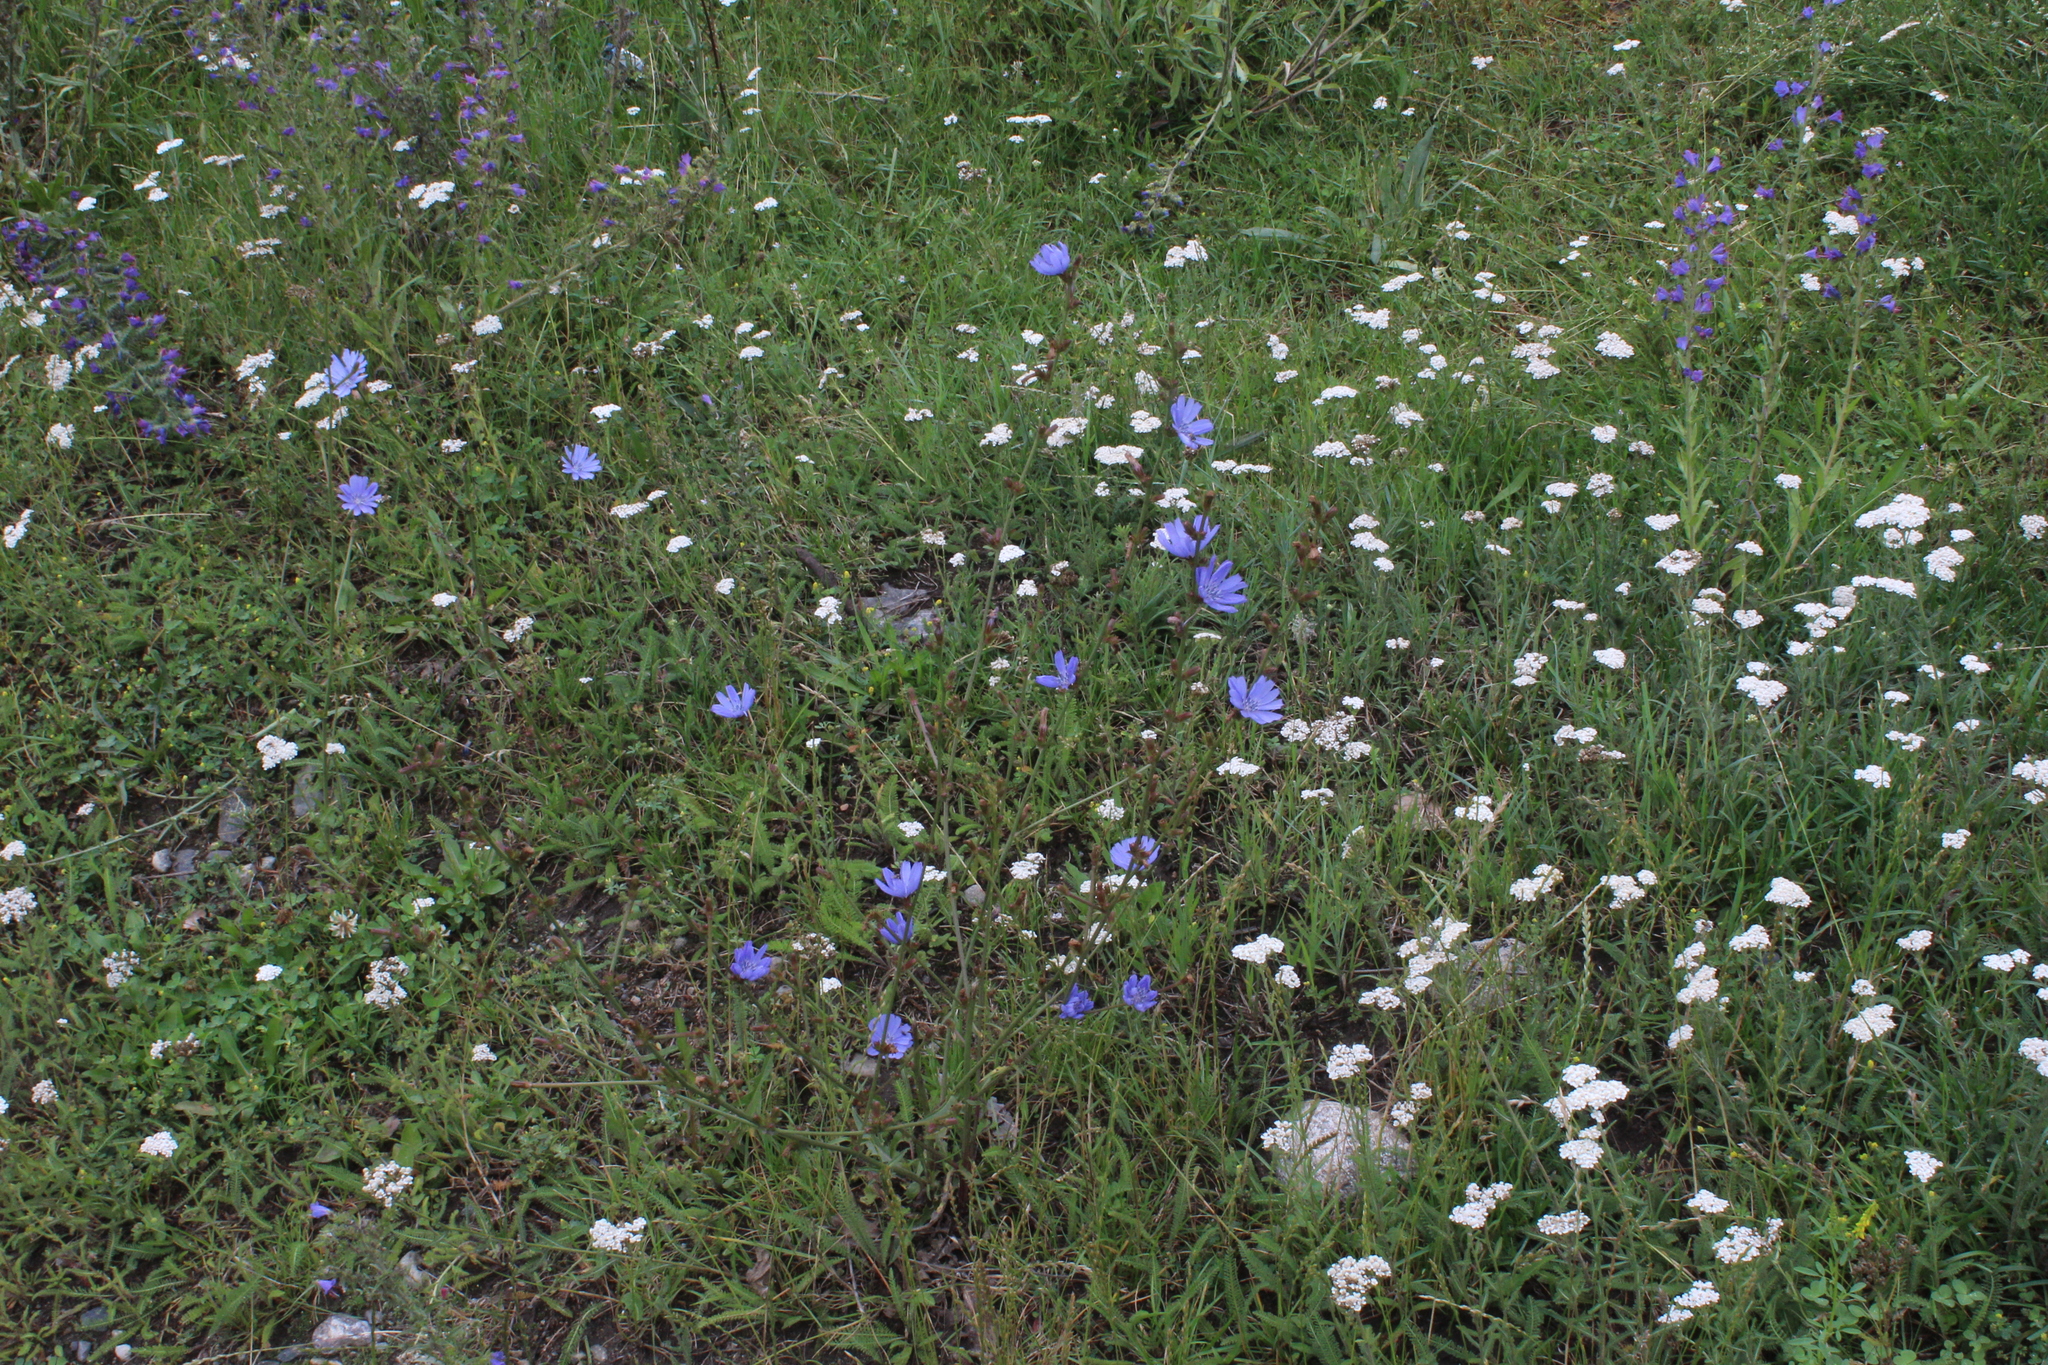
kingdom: Plantae
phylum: Tracheophyta
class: Magnoliopsida
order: Asterales
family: Asteraceae
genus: Cichorium
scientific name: Cichorium intybus
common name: Chicory
